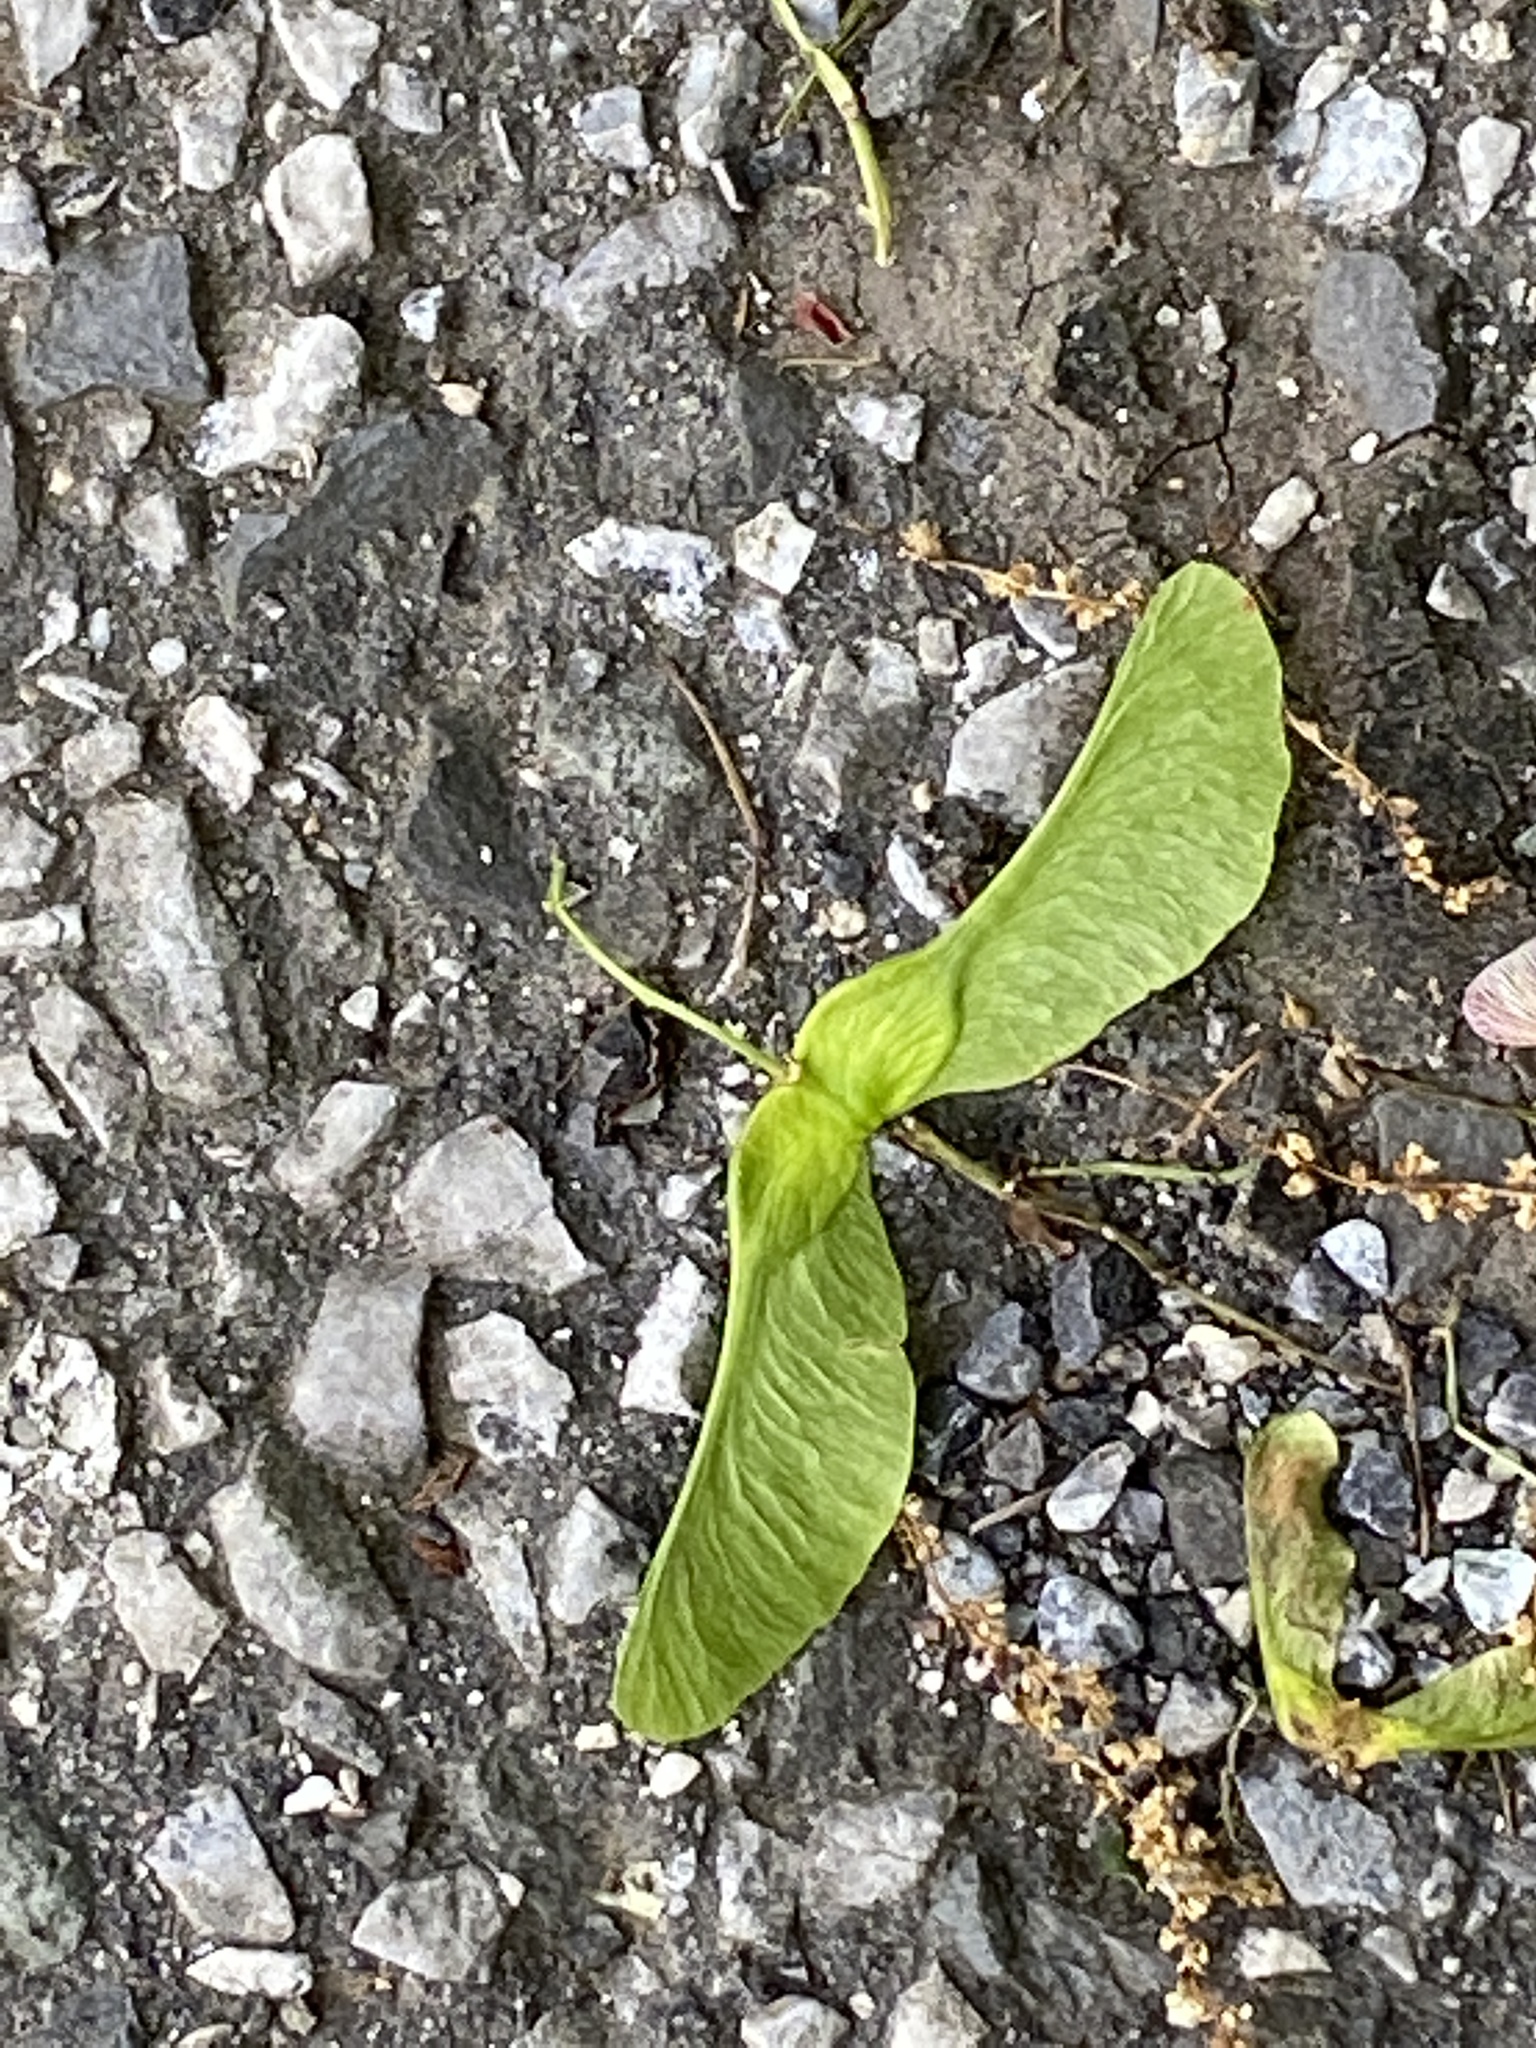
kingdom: Plantae
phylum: Tracheophyta
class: Magnoliopsida
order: Sapindales
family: Sapindaceae
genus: Acer
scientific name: Acer platanoides
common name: Norway maple
